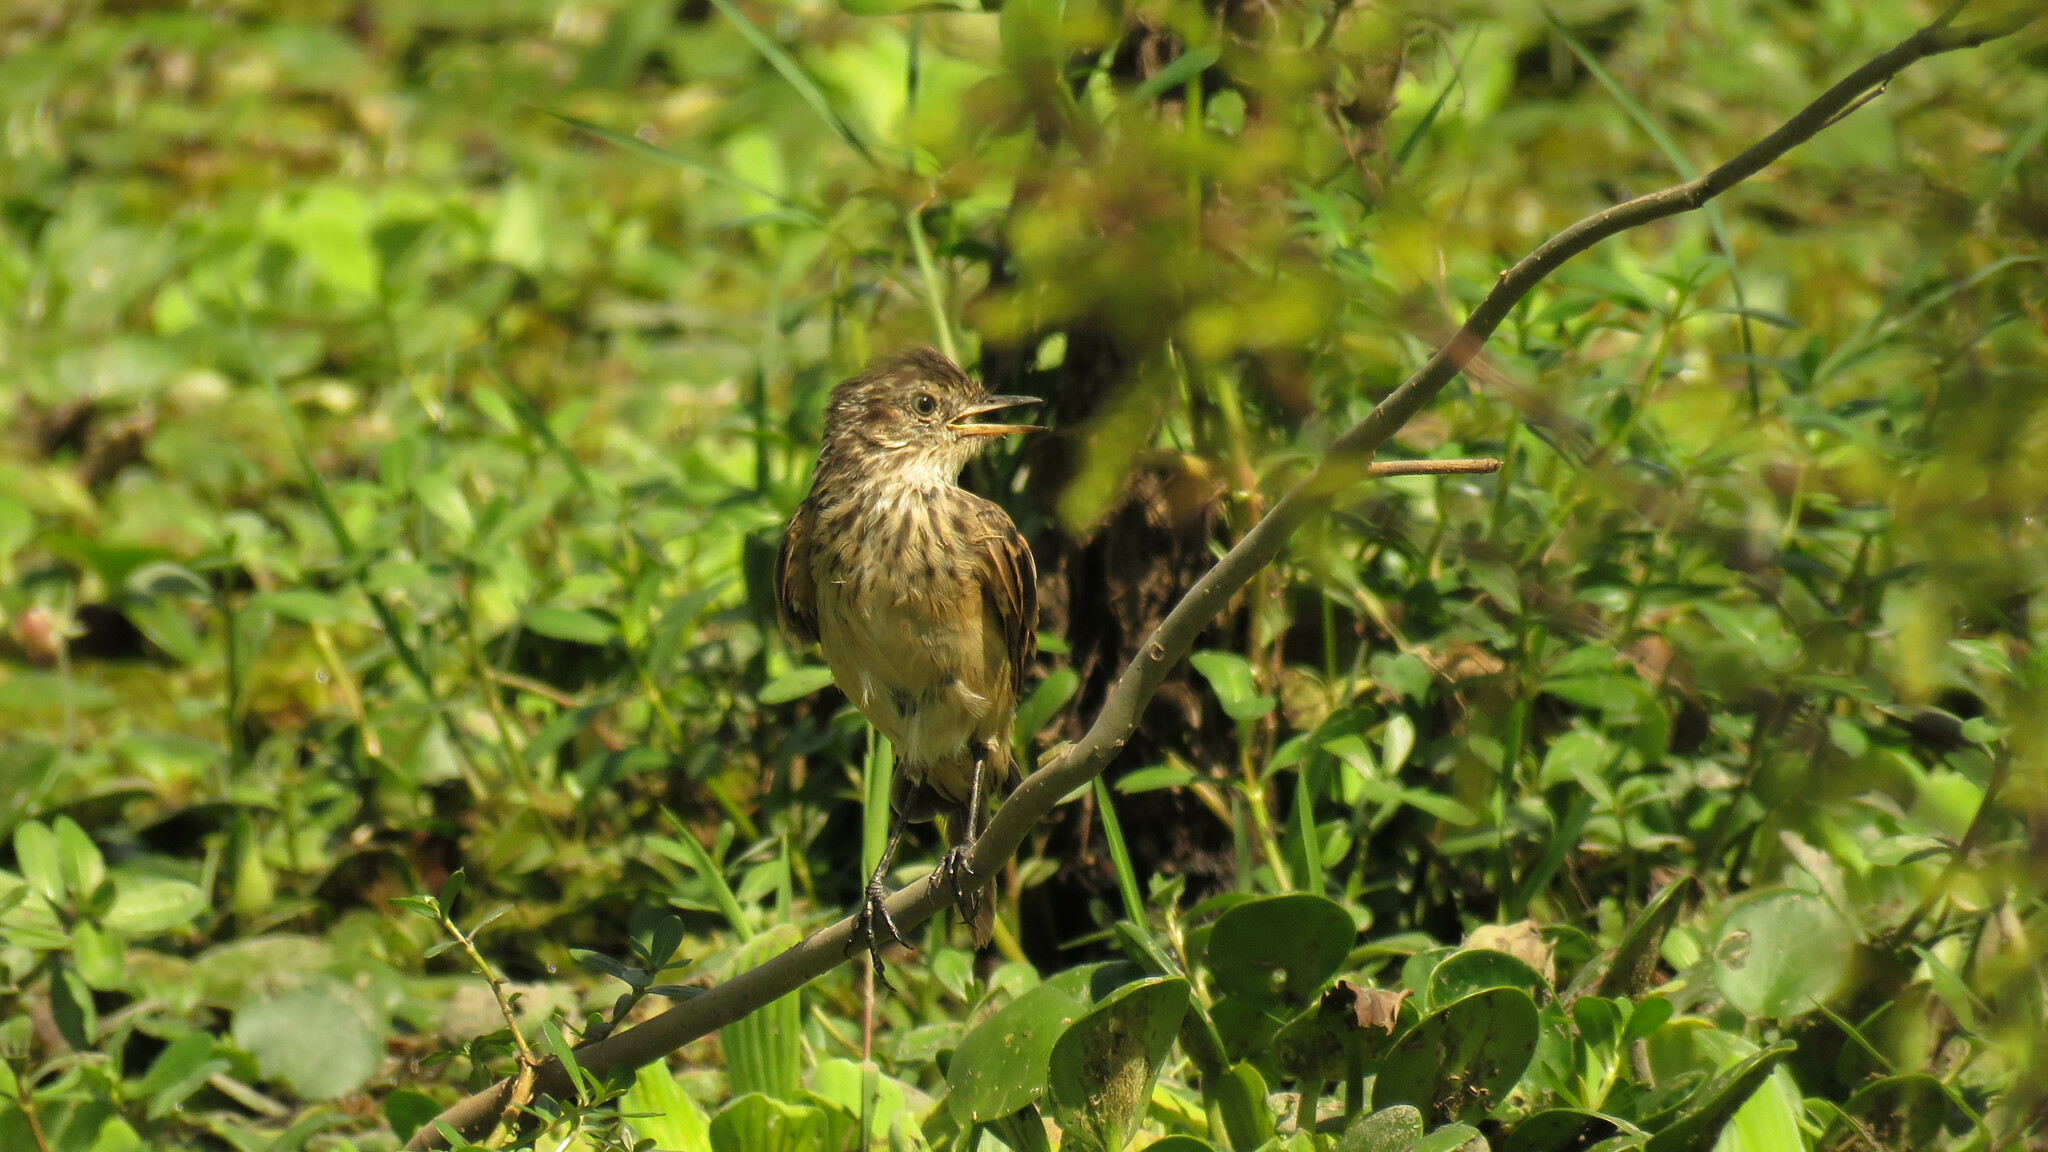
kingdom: Animalia
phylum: Chordata
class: Aves
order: Passeriformes
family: Tyrannidae
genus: Hymenops
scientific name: Hymenops perspicillatus
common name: Spectacled tyrant
